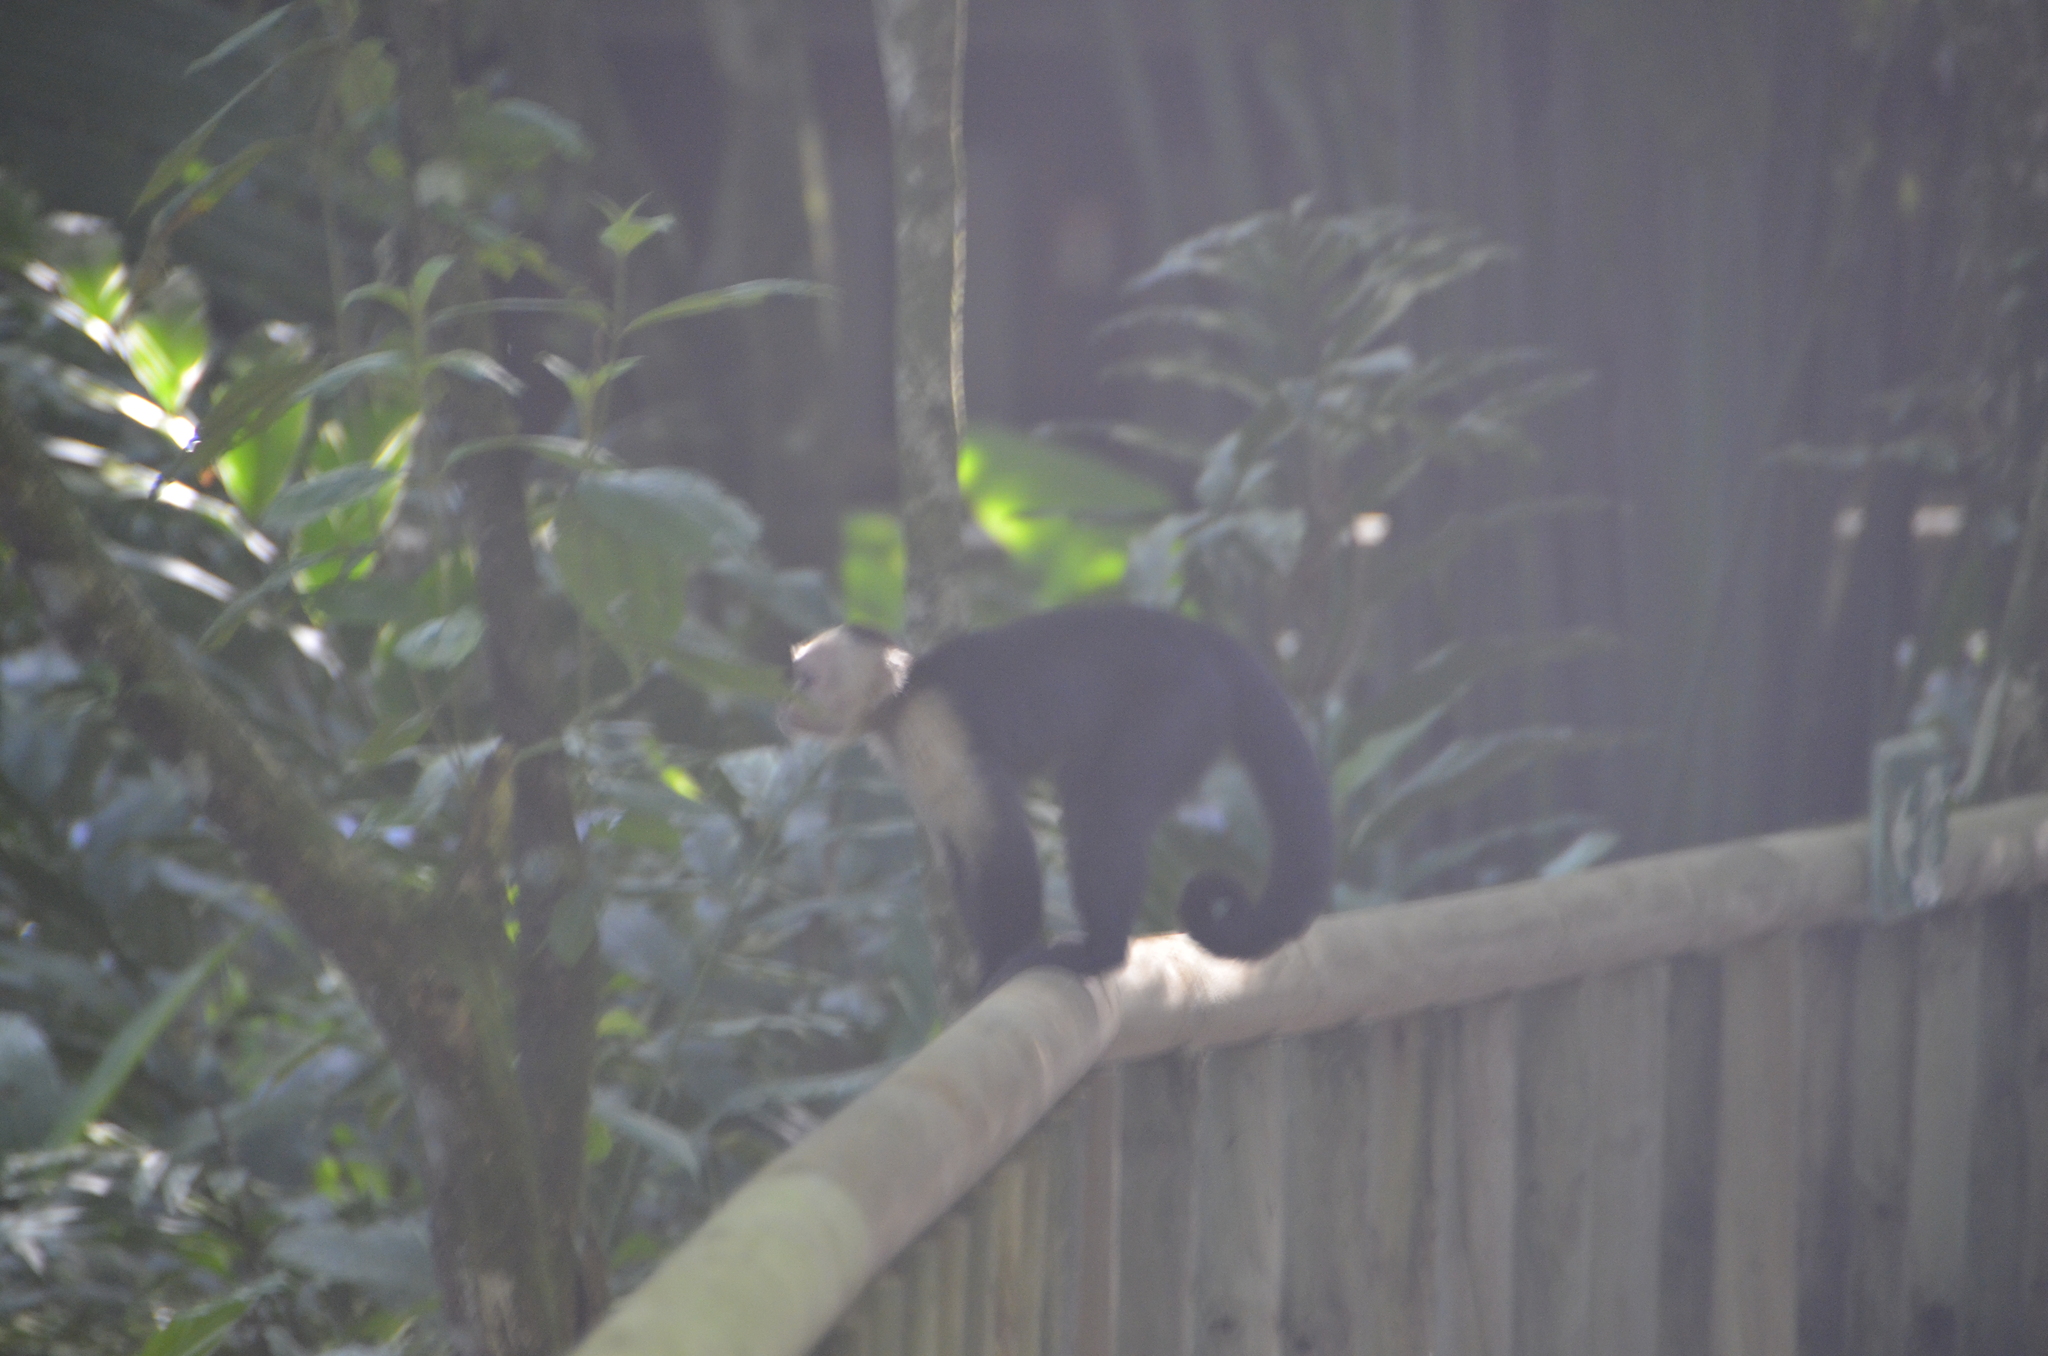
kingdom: Animalia
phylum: Chordata
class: Mammalia
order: Primates
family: Cebidae
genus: Cebus
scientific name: Cebus imitator
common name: Panamanian white-faced capuchin
